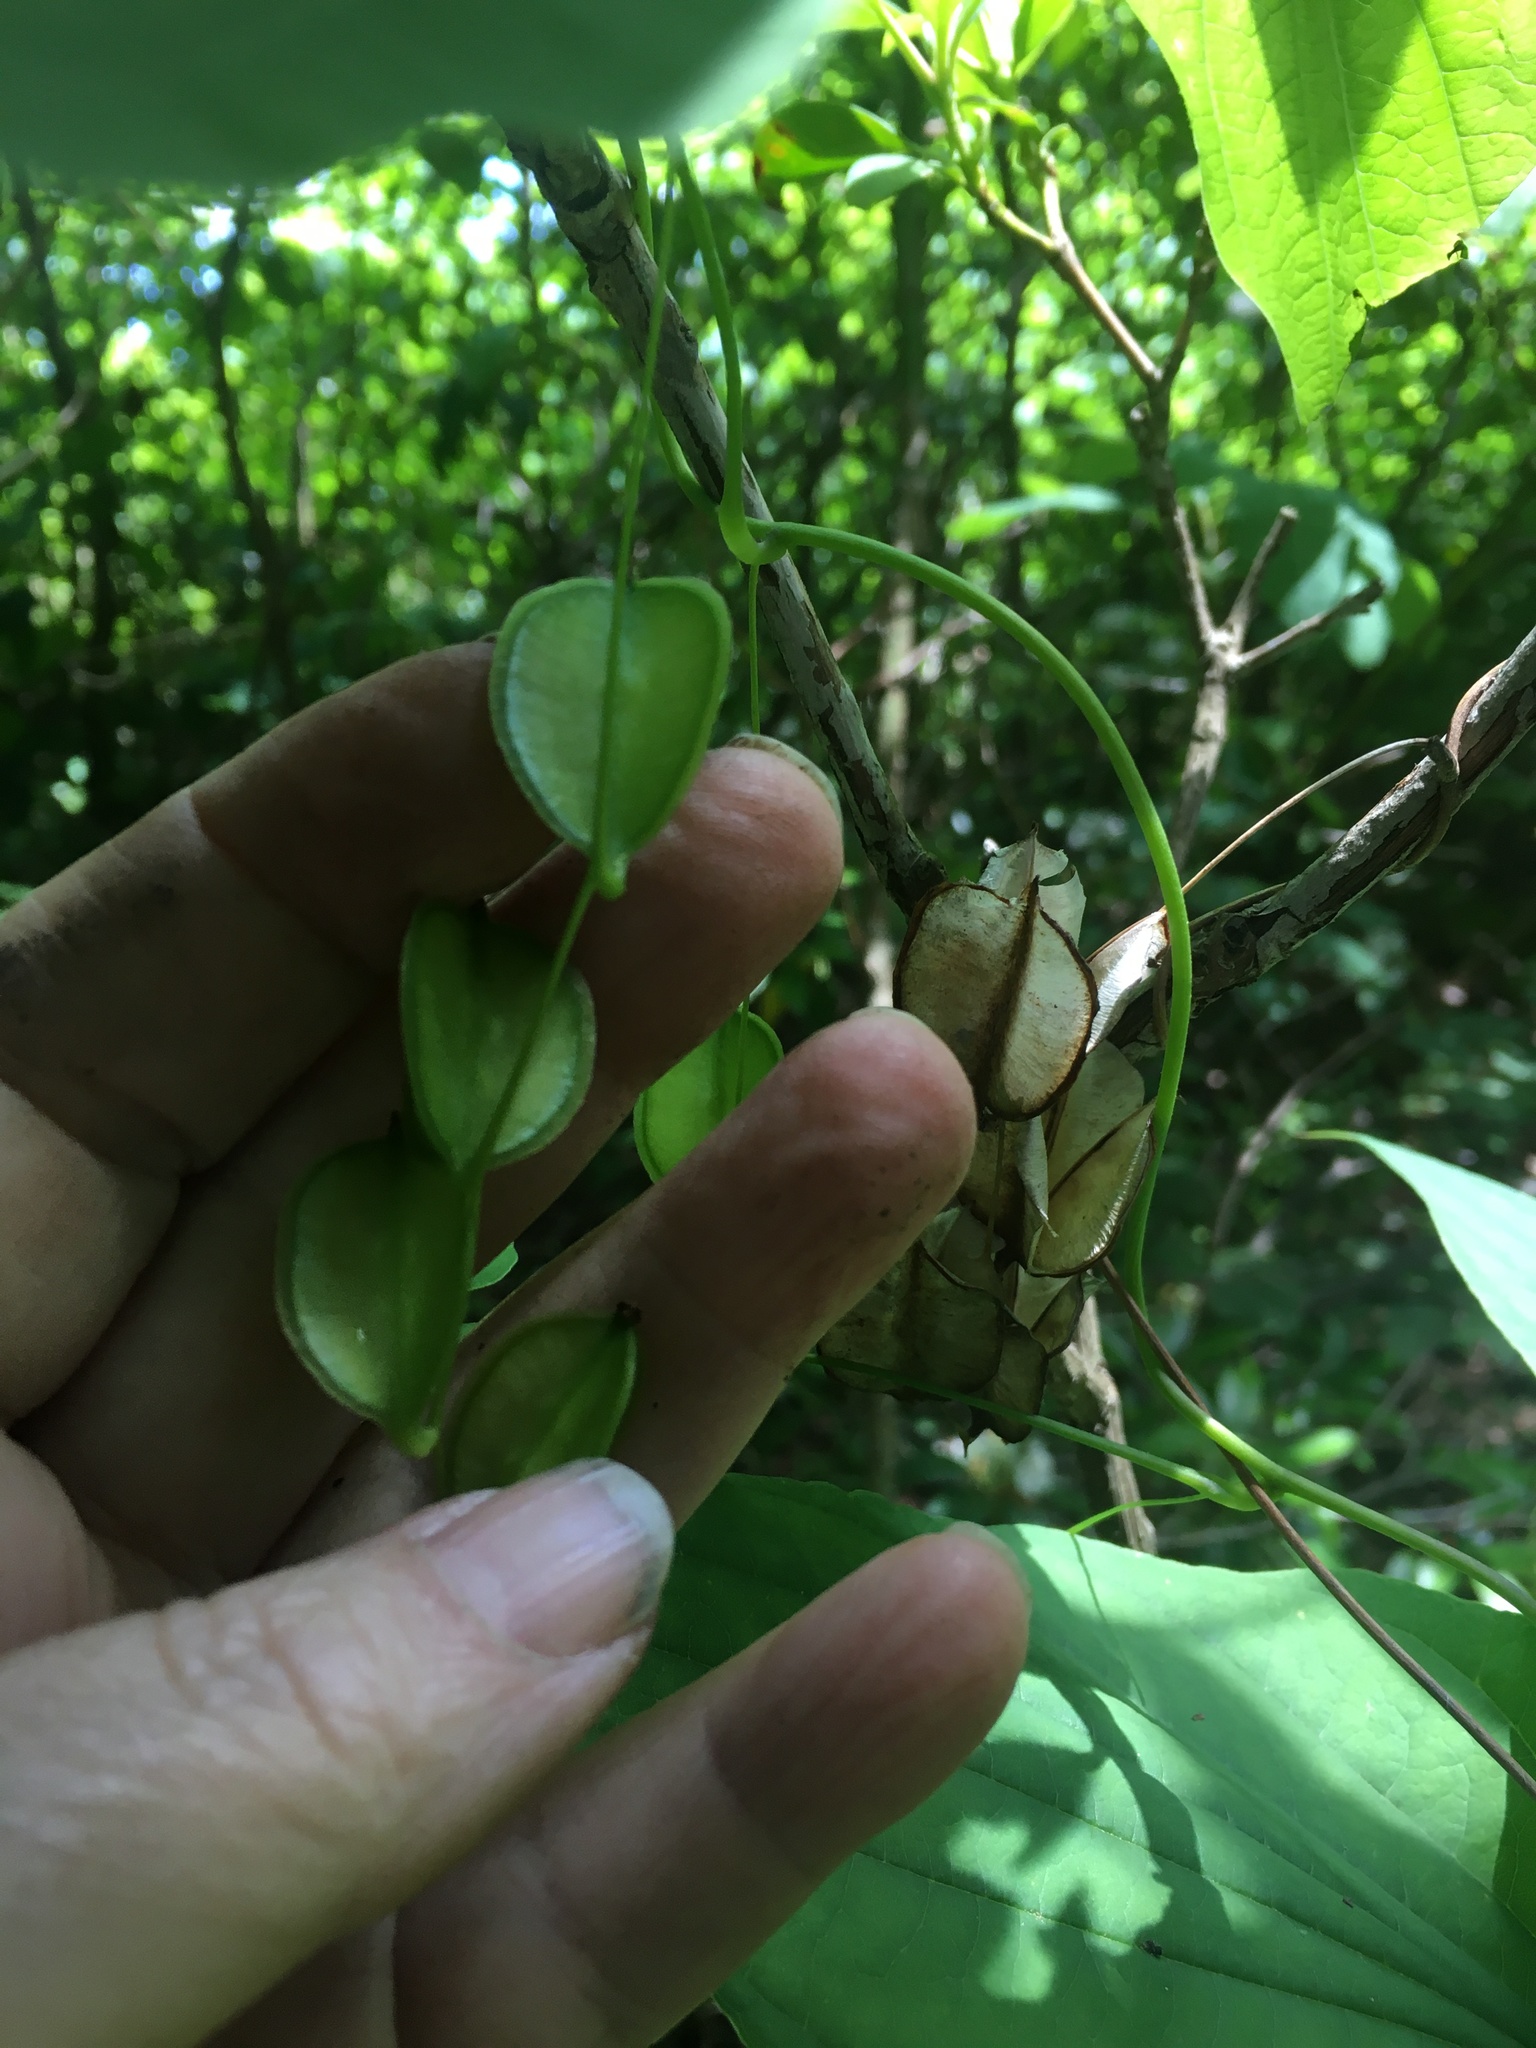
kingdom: Plantae
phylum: Tracheophyta
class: Liliopsida
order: Dioscoreales
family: Dioscoreaceae
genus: Dioscorea
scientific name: Dioscorea villosa
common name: Wild yam
